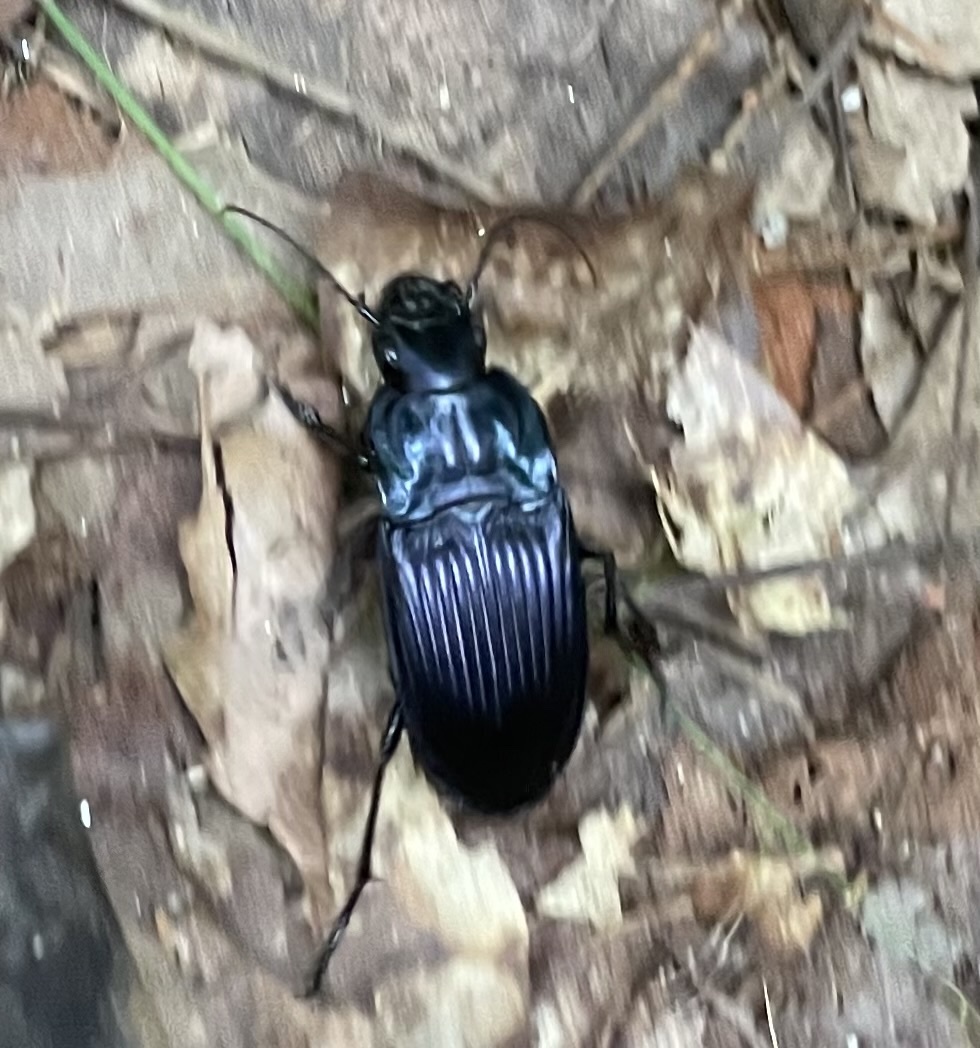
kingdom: Animalia
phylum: Arthropoda
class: Insecta
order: Coleoptera
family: Carabidae
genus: Dicaelus
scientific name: Dicaelus purpuratus
